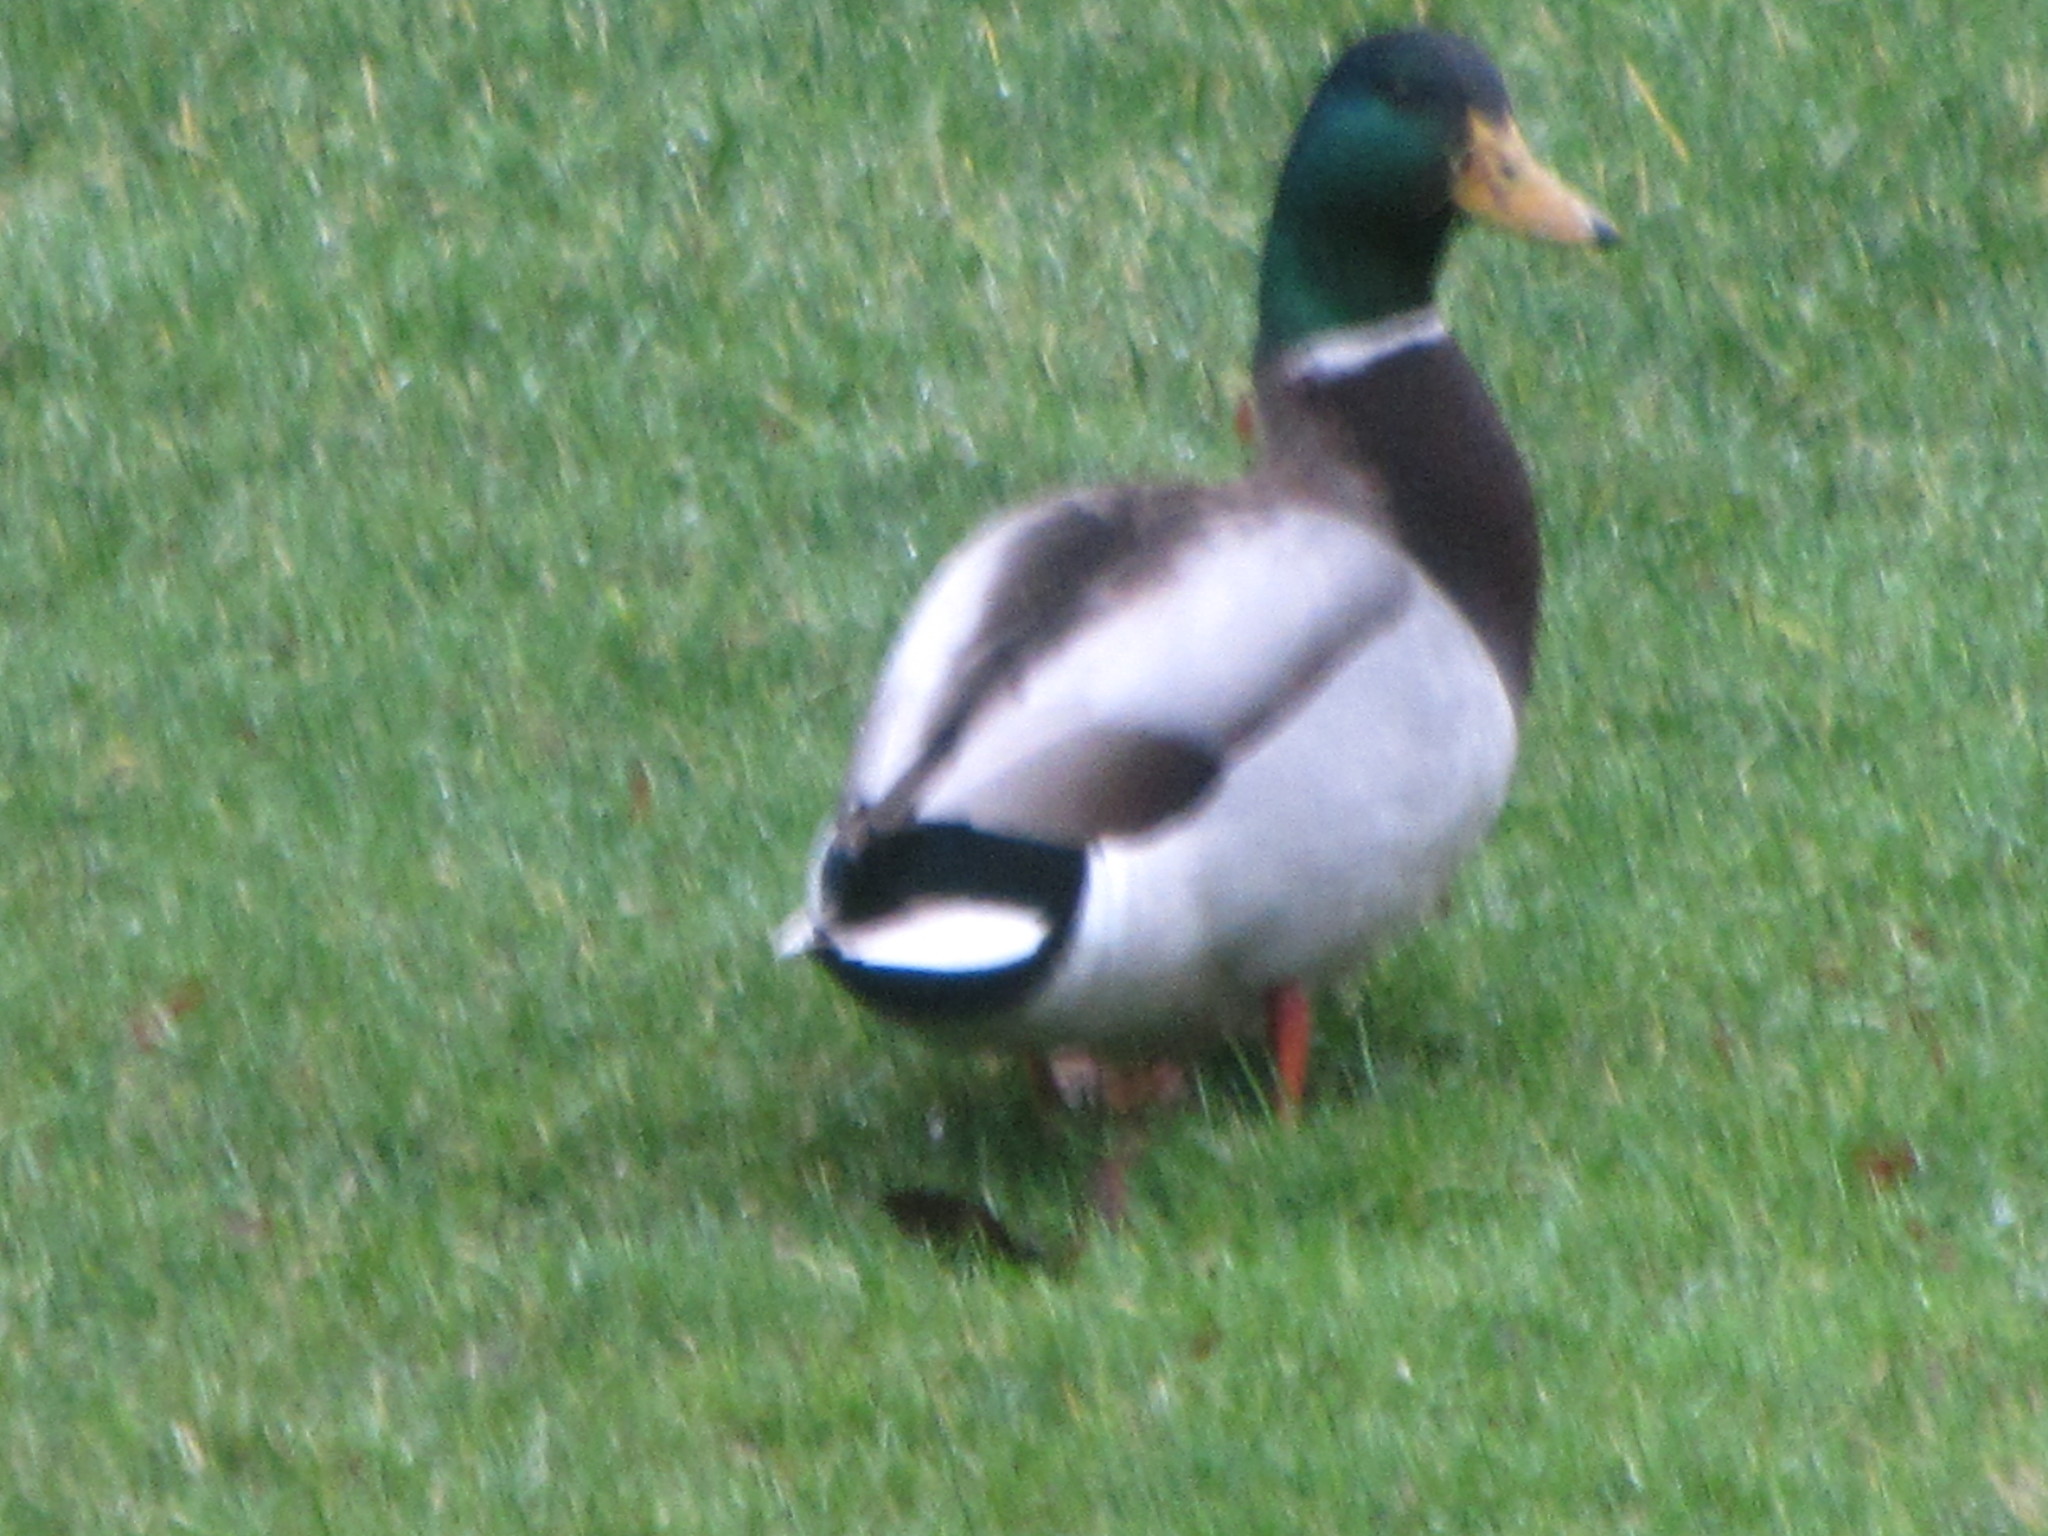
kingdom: Animalia
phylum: Chordata
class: Aves
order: Anseriformes
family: Anatidae
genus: Anas
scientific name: Anas platyrhynchos
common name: Mallard
